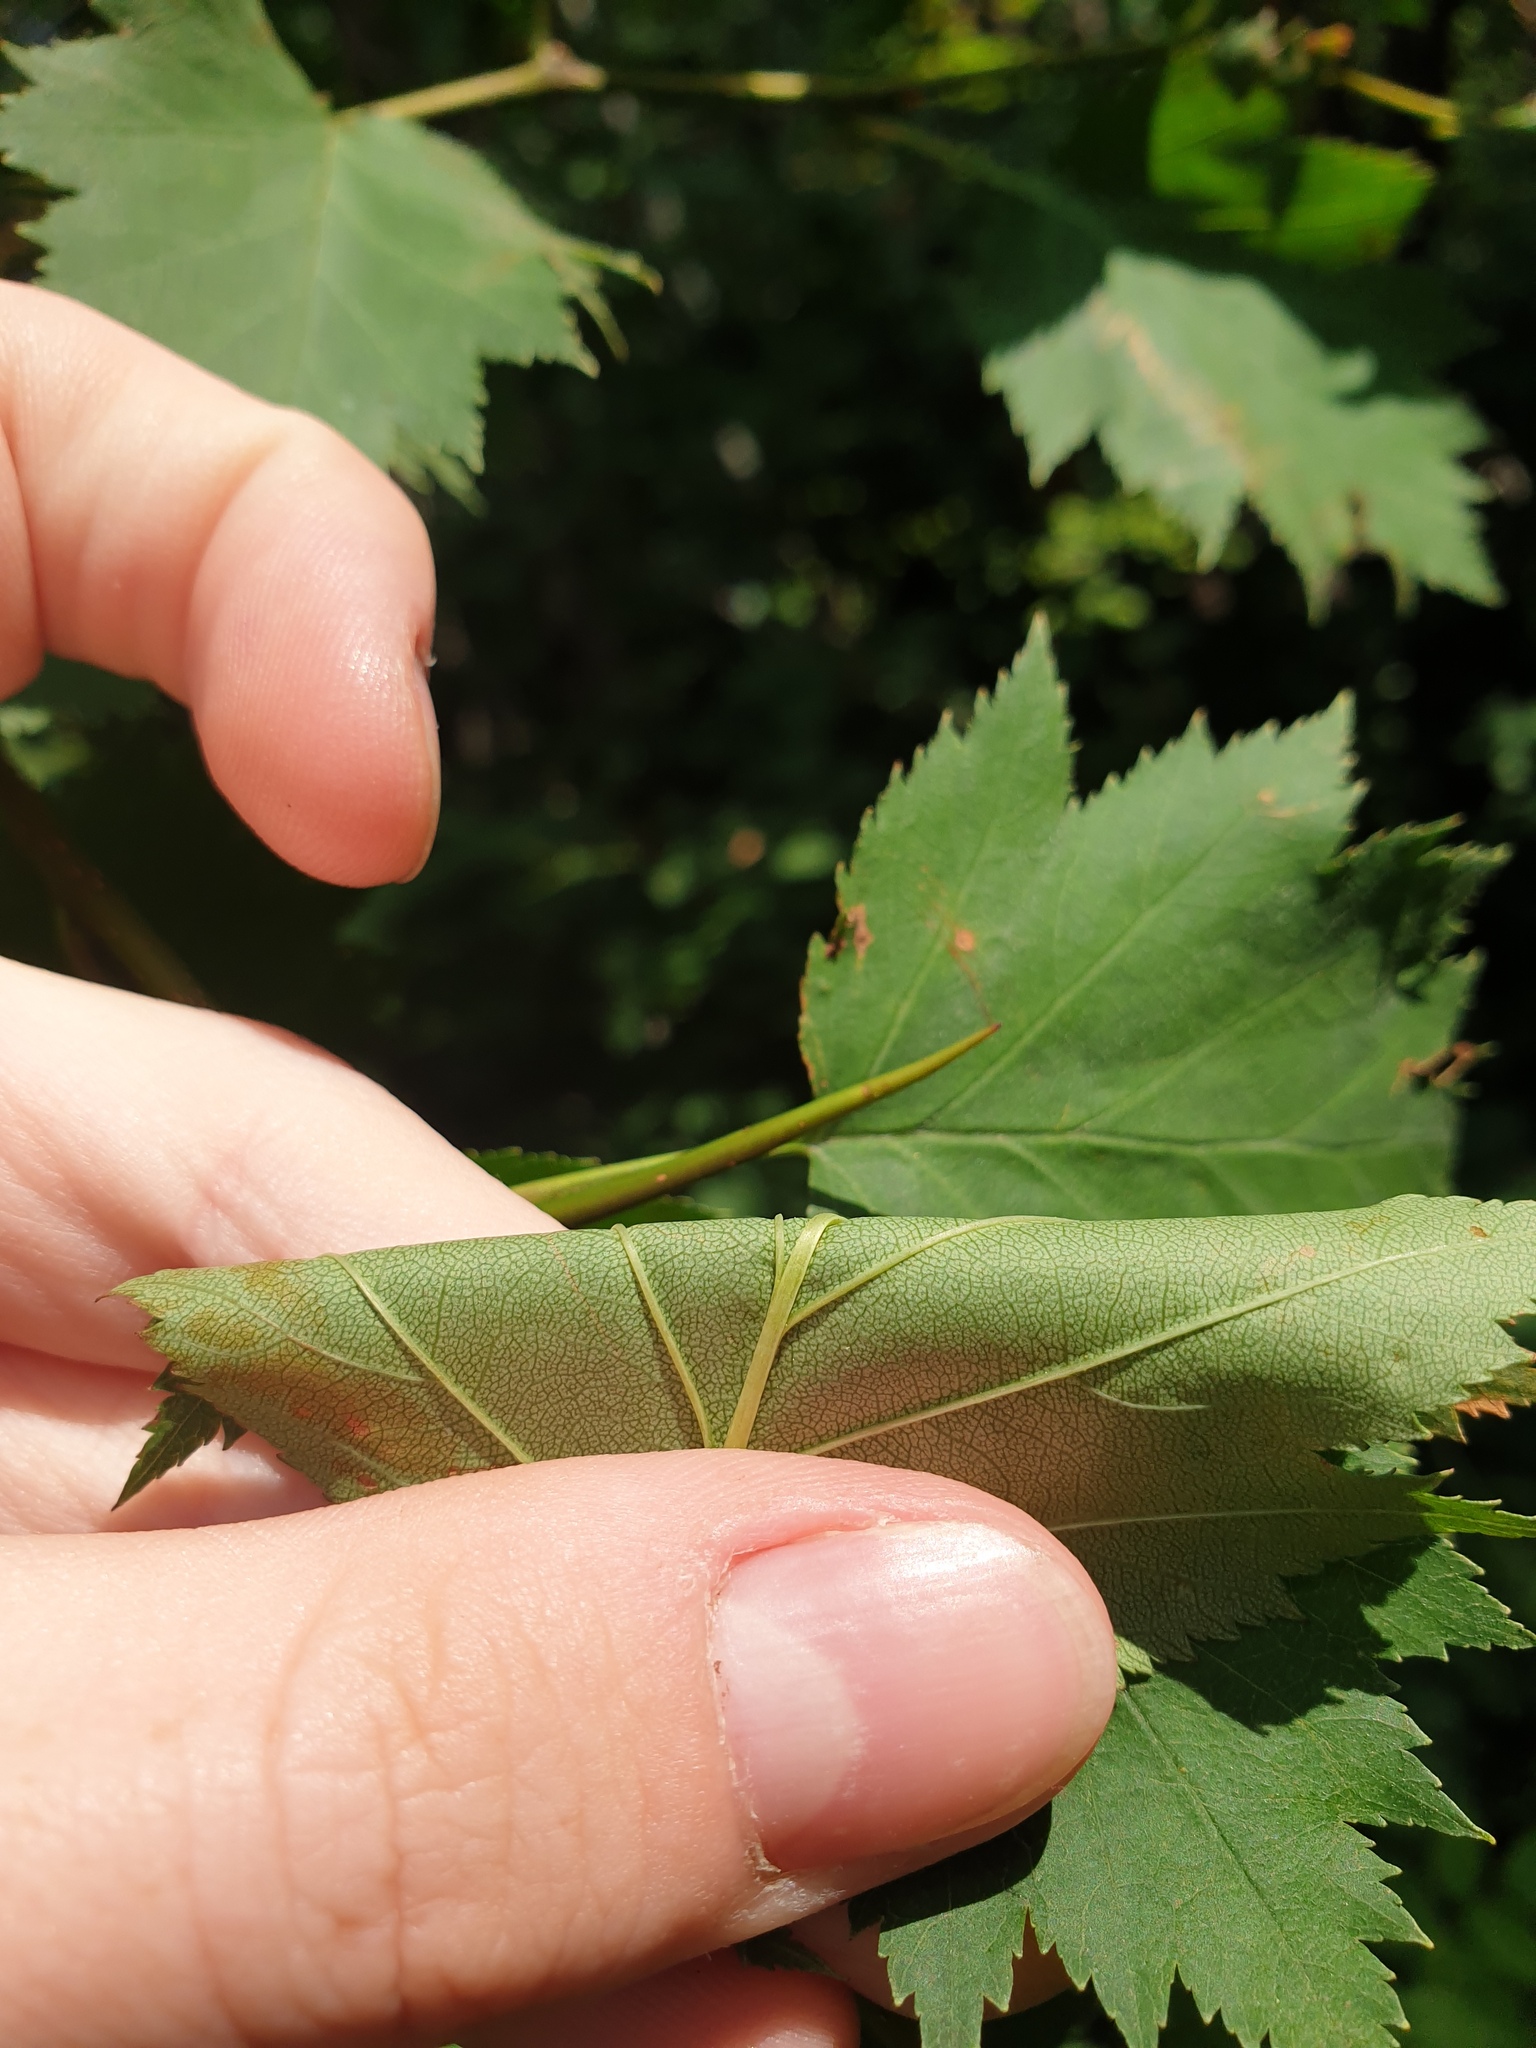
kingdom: Plantae
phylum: Tracheophyta
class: Magnoliopsida
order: Rosales
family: Rosaceae
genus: Crataegus
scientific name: Crataegus macrosperma
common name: Variable hawthorn
